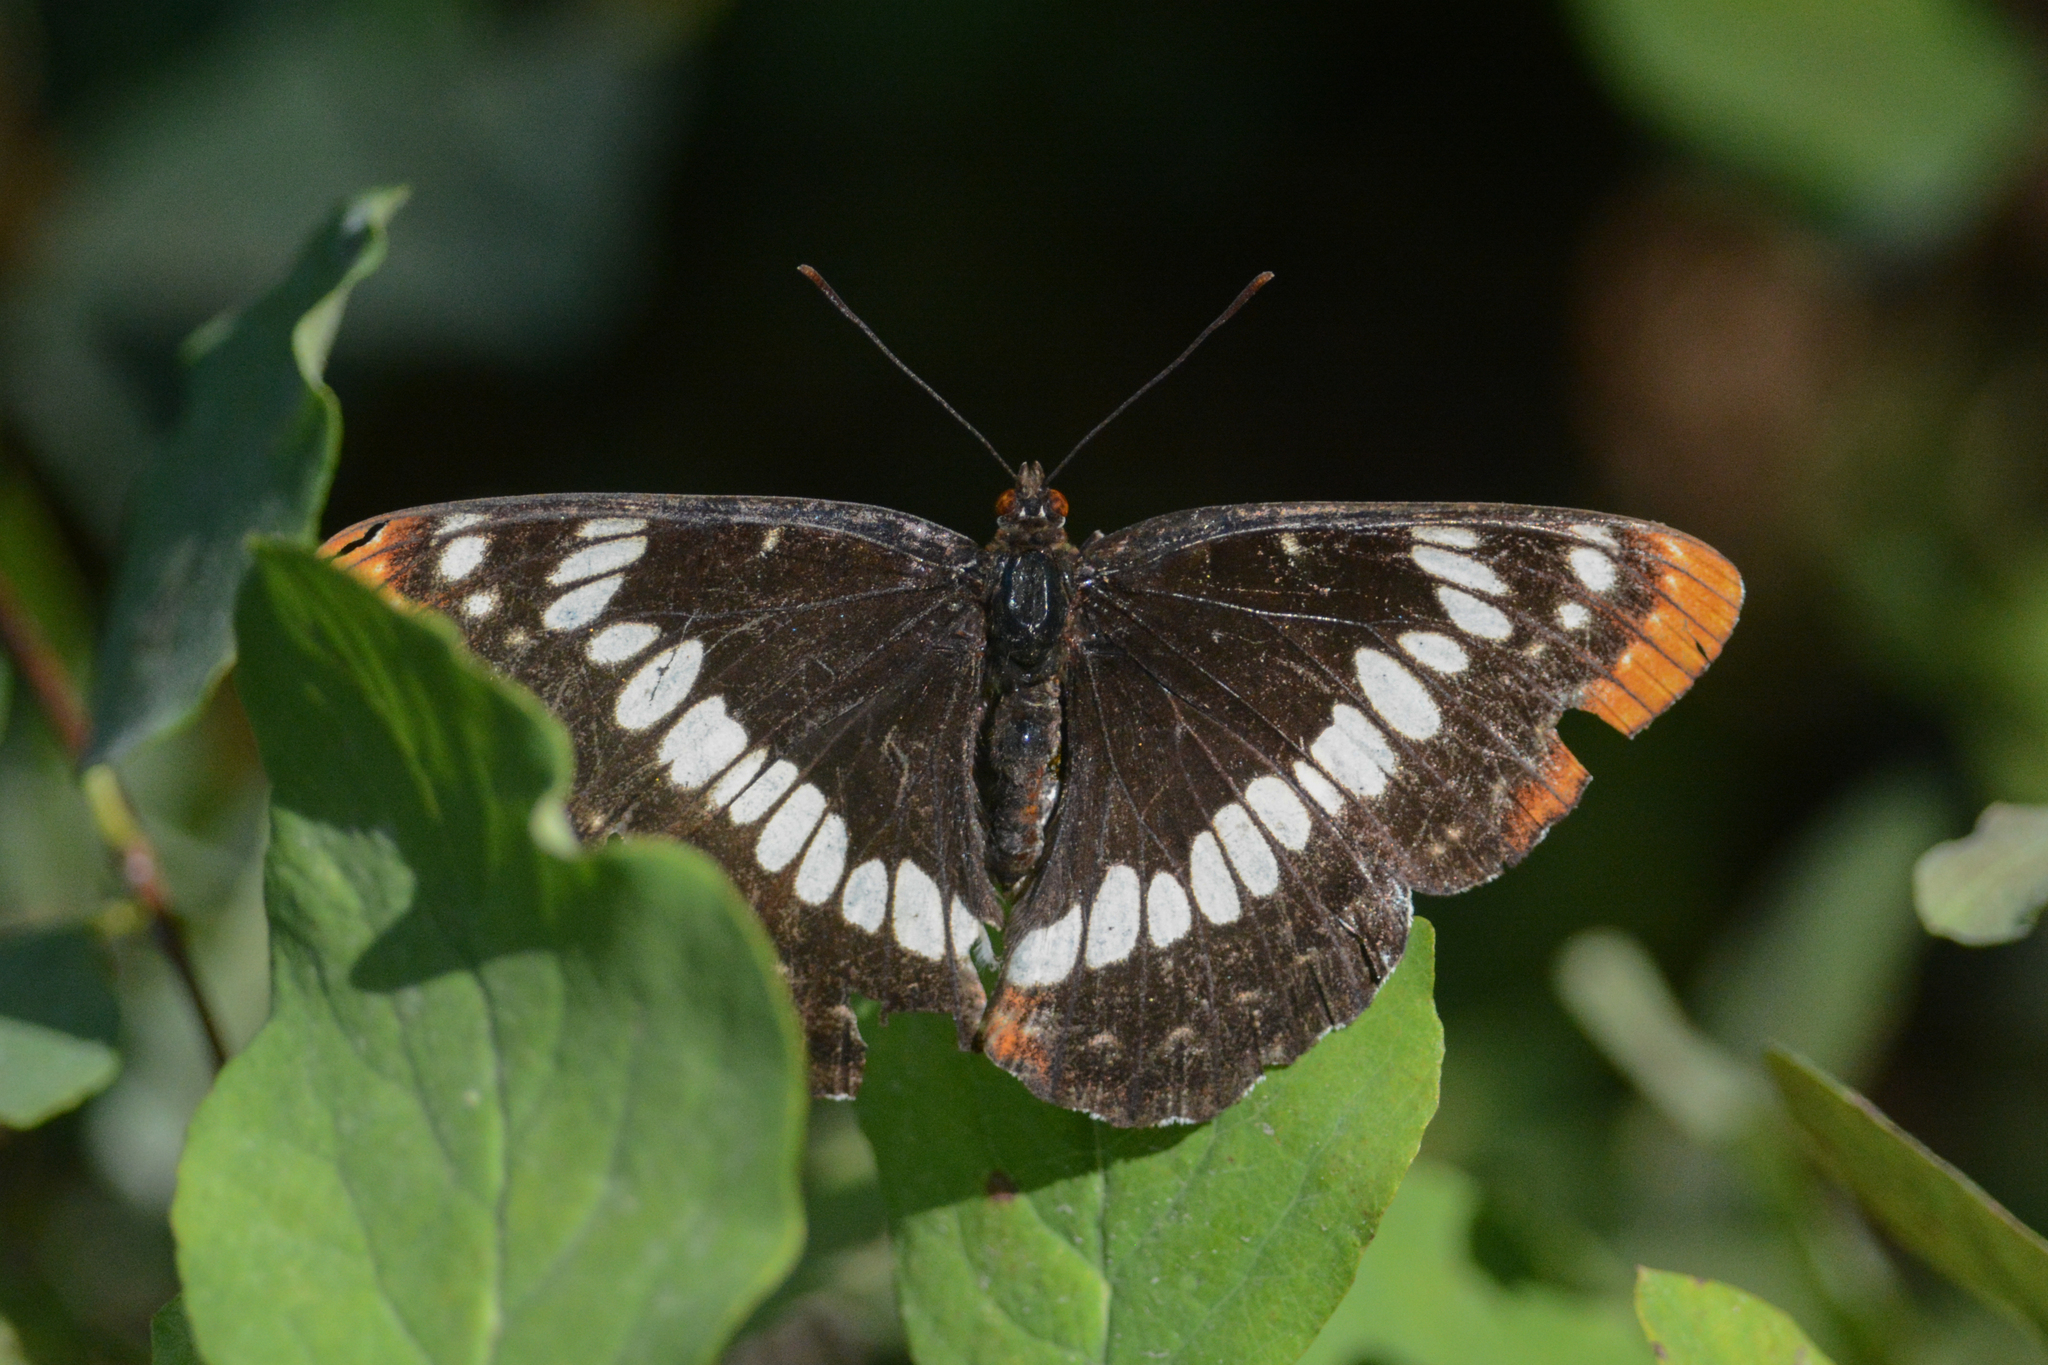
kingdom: Animalia
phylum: Arthropoda
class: Insecta
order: Lepidoptera
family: Nymphalidae
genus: Limenitis
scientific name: Limenitis lorquini
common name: Lorquin's admiral
